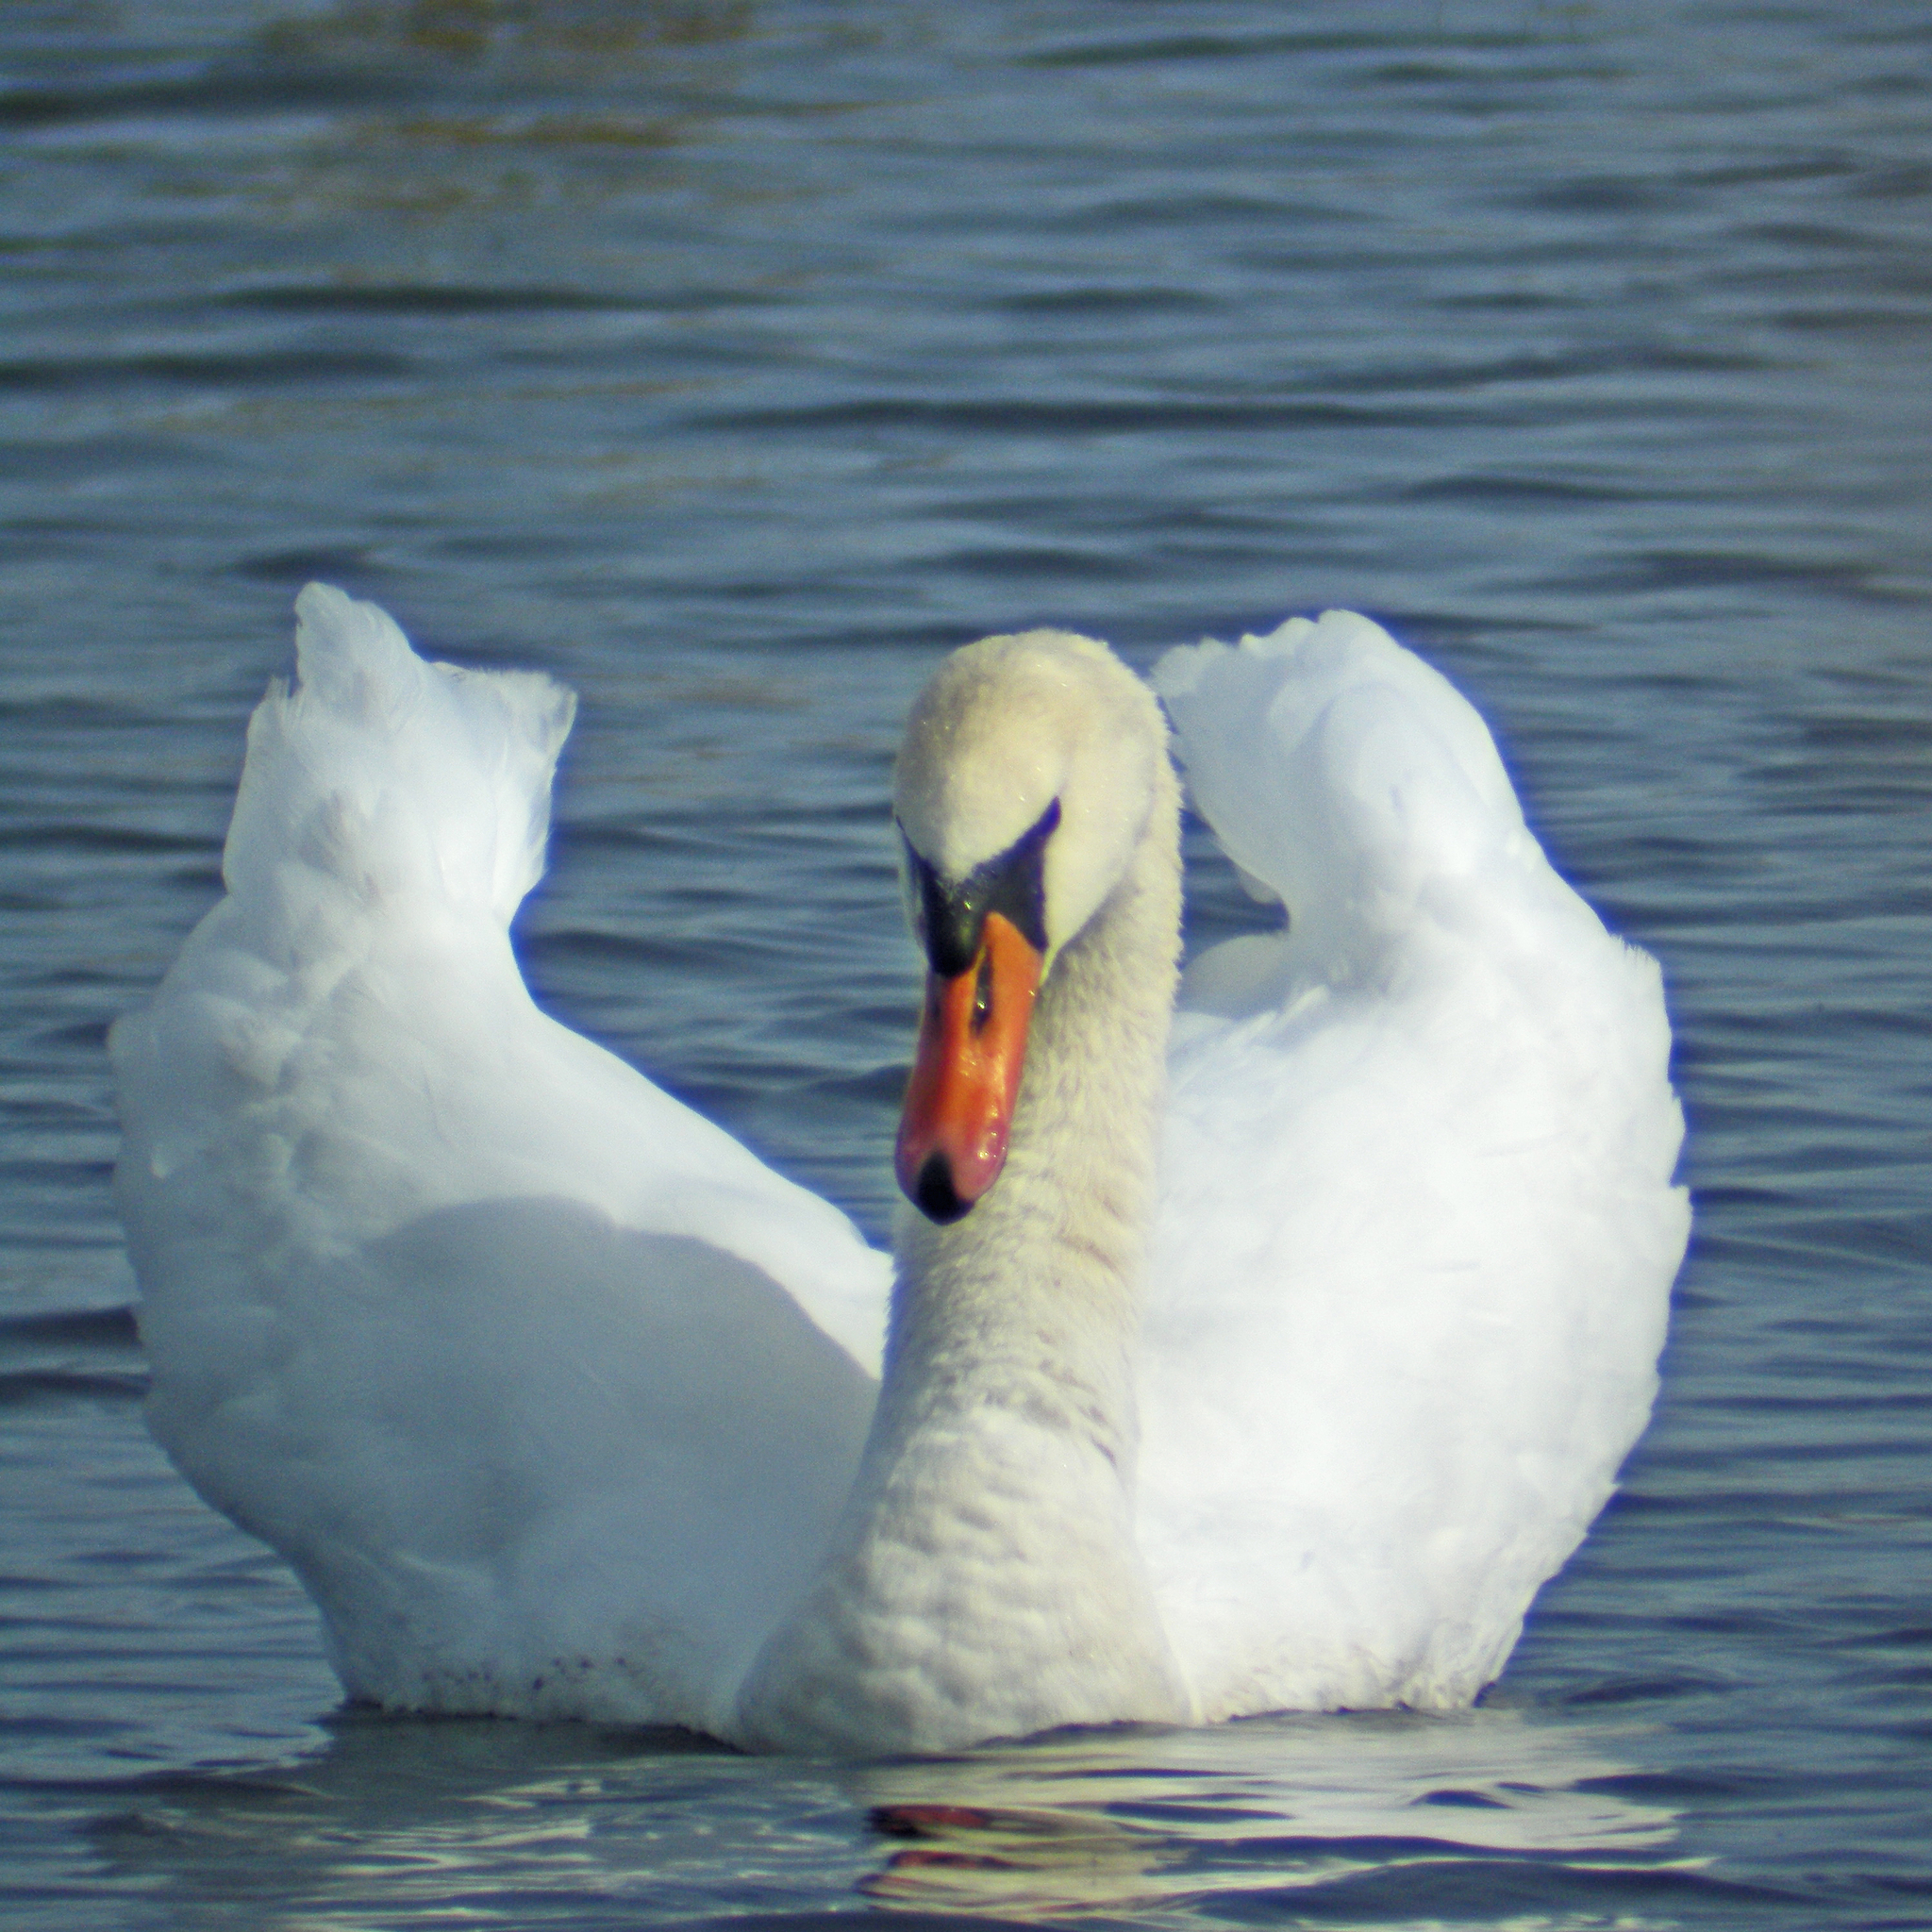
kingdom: Animalia
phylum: Chordata
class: Aves
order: Anseriformes
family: Anatidae
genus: Cygnus
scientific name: Cygnus olor
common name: Mute swan
